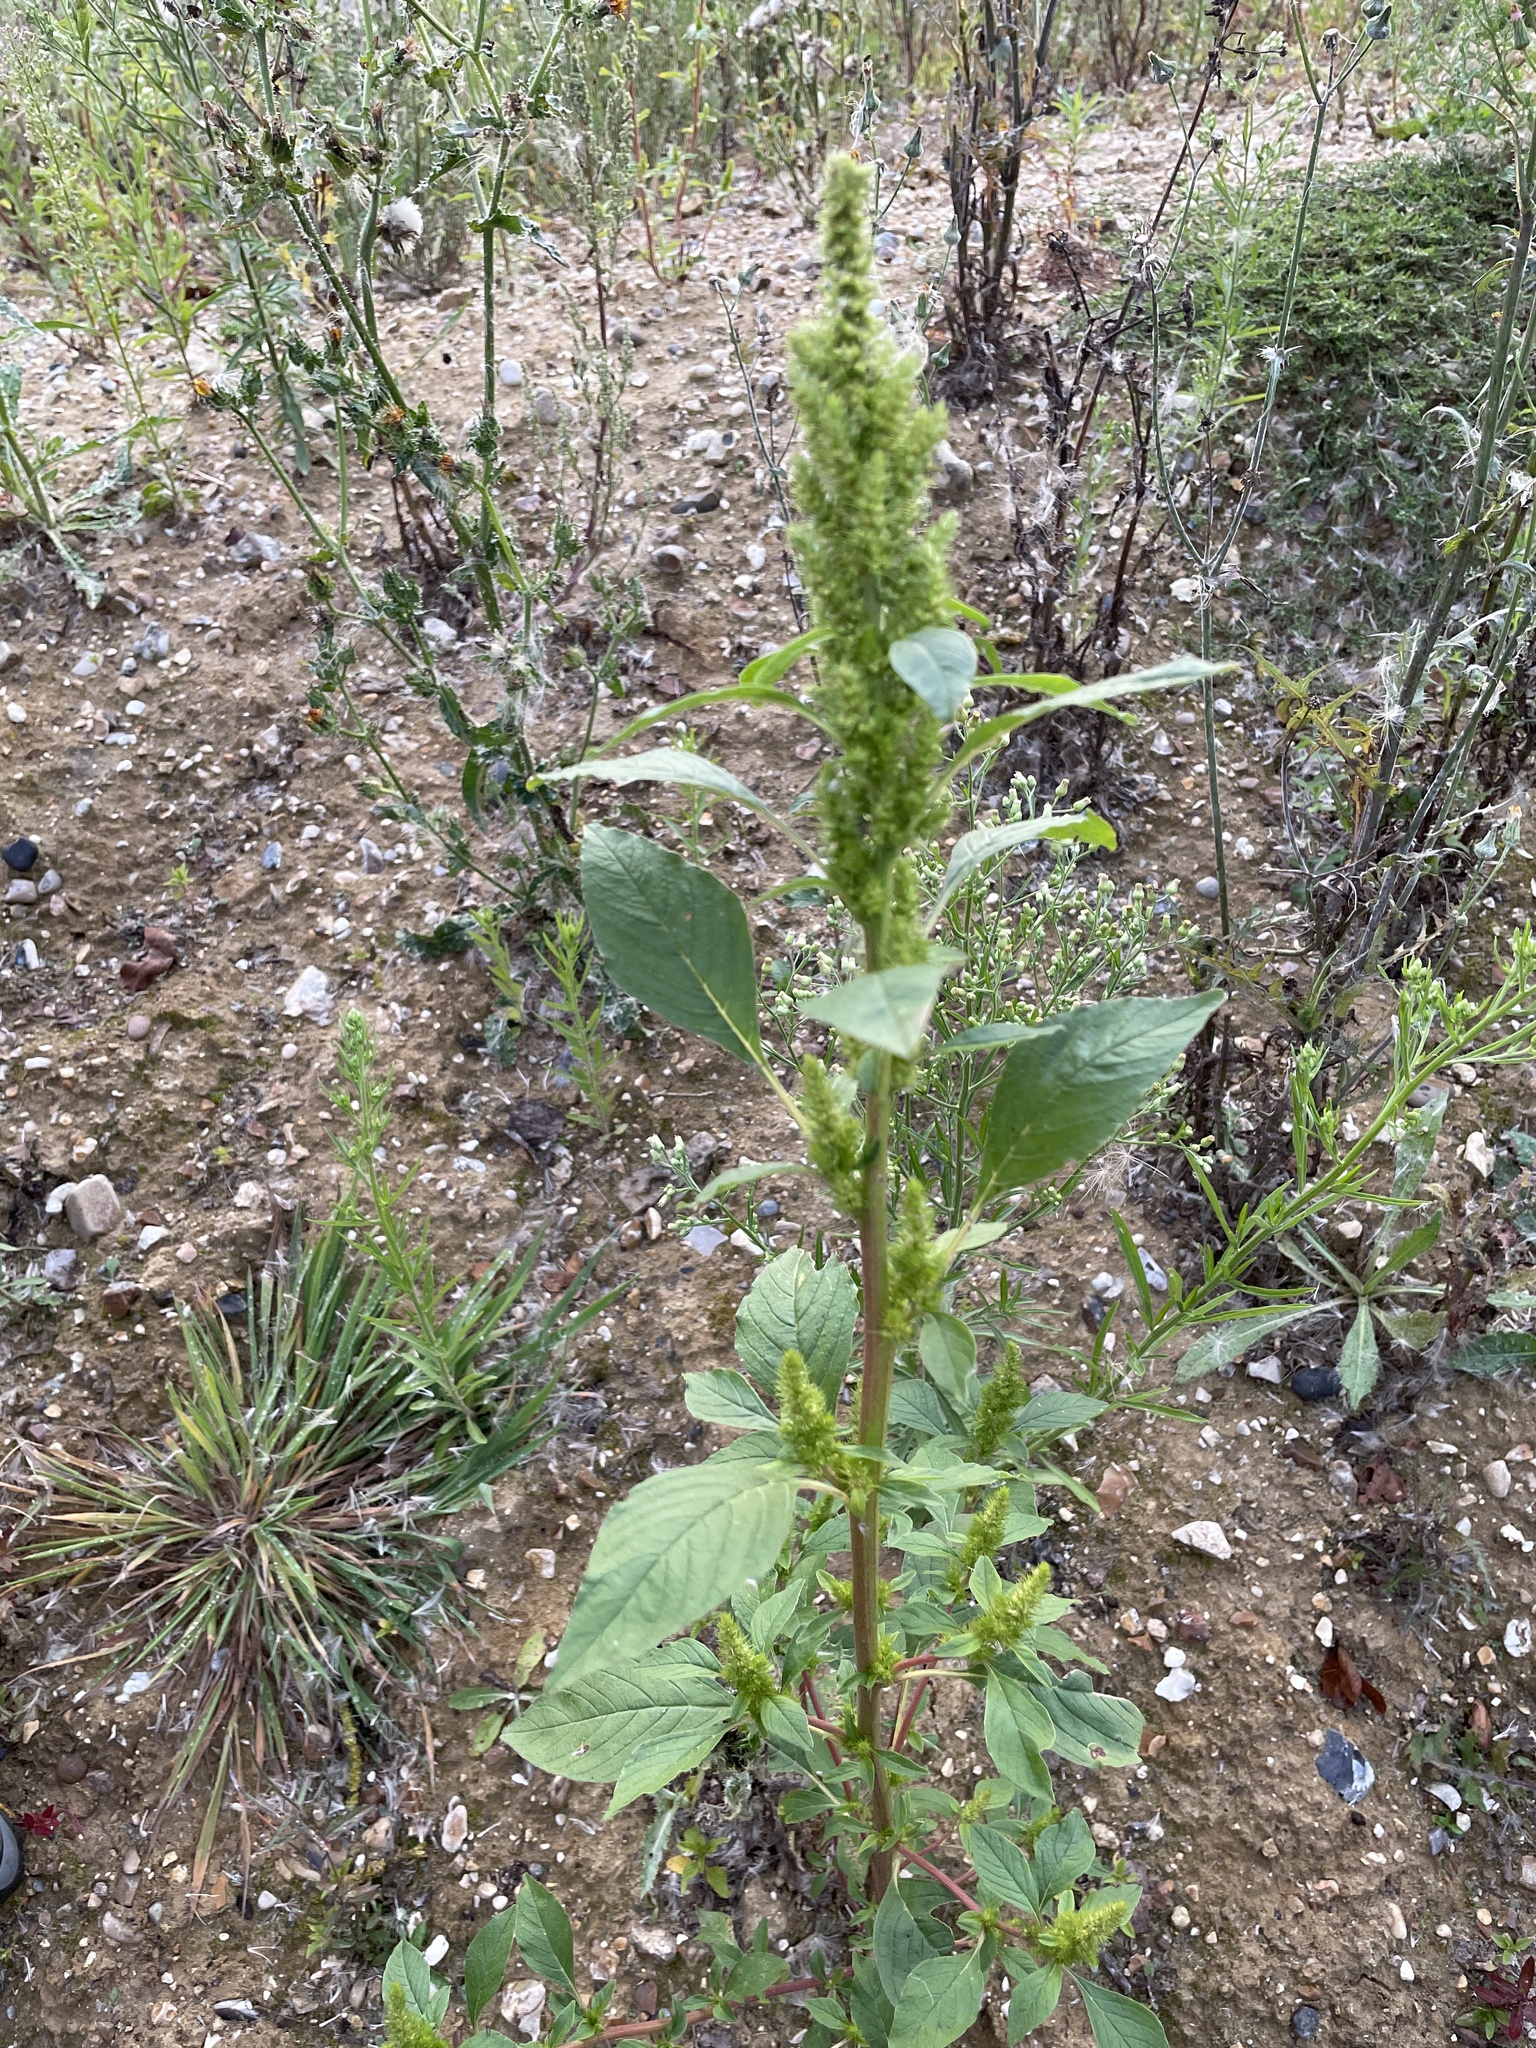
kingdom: Plantae
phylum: Tracheophyta
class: Magnoliopsida
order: Caryophyllales
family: Amaranthaceae
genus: Amaranthus
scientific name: Amaranthus retroflexus
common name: Redroot amaranth
